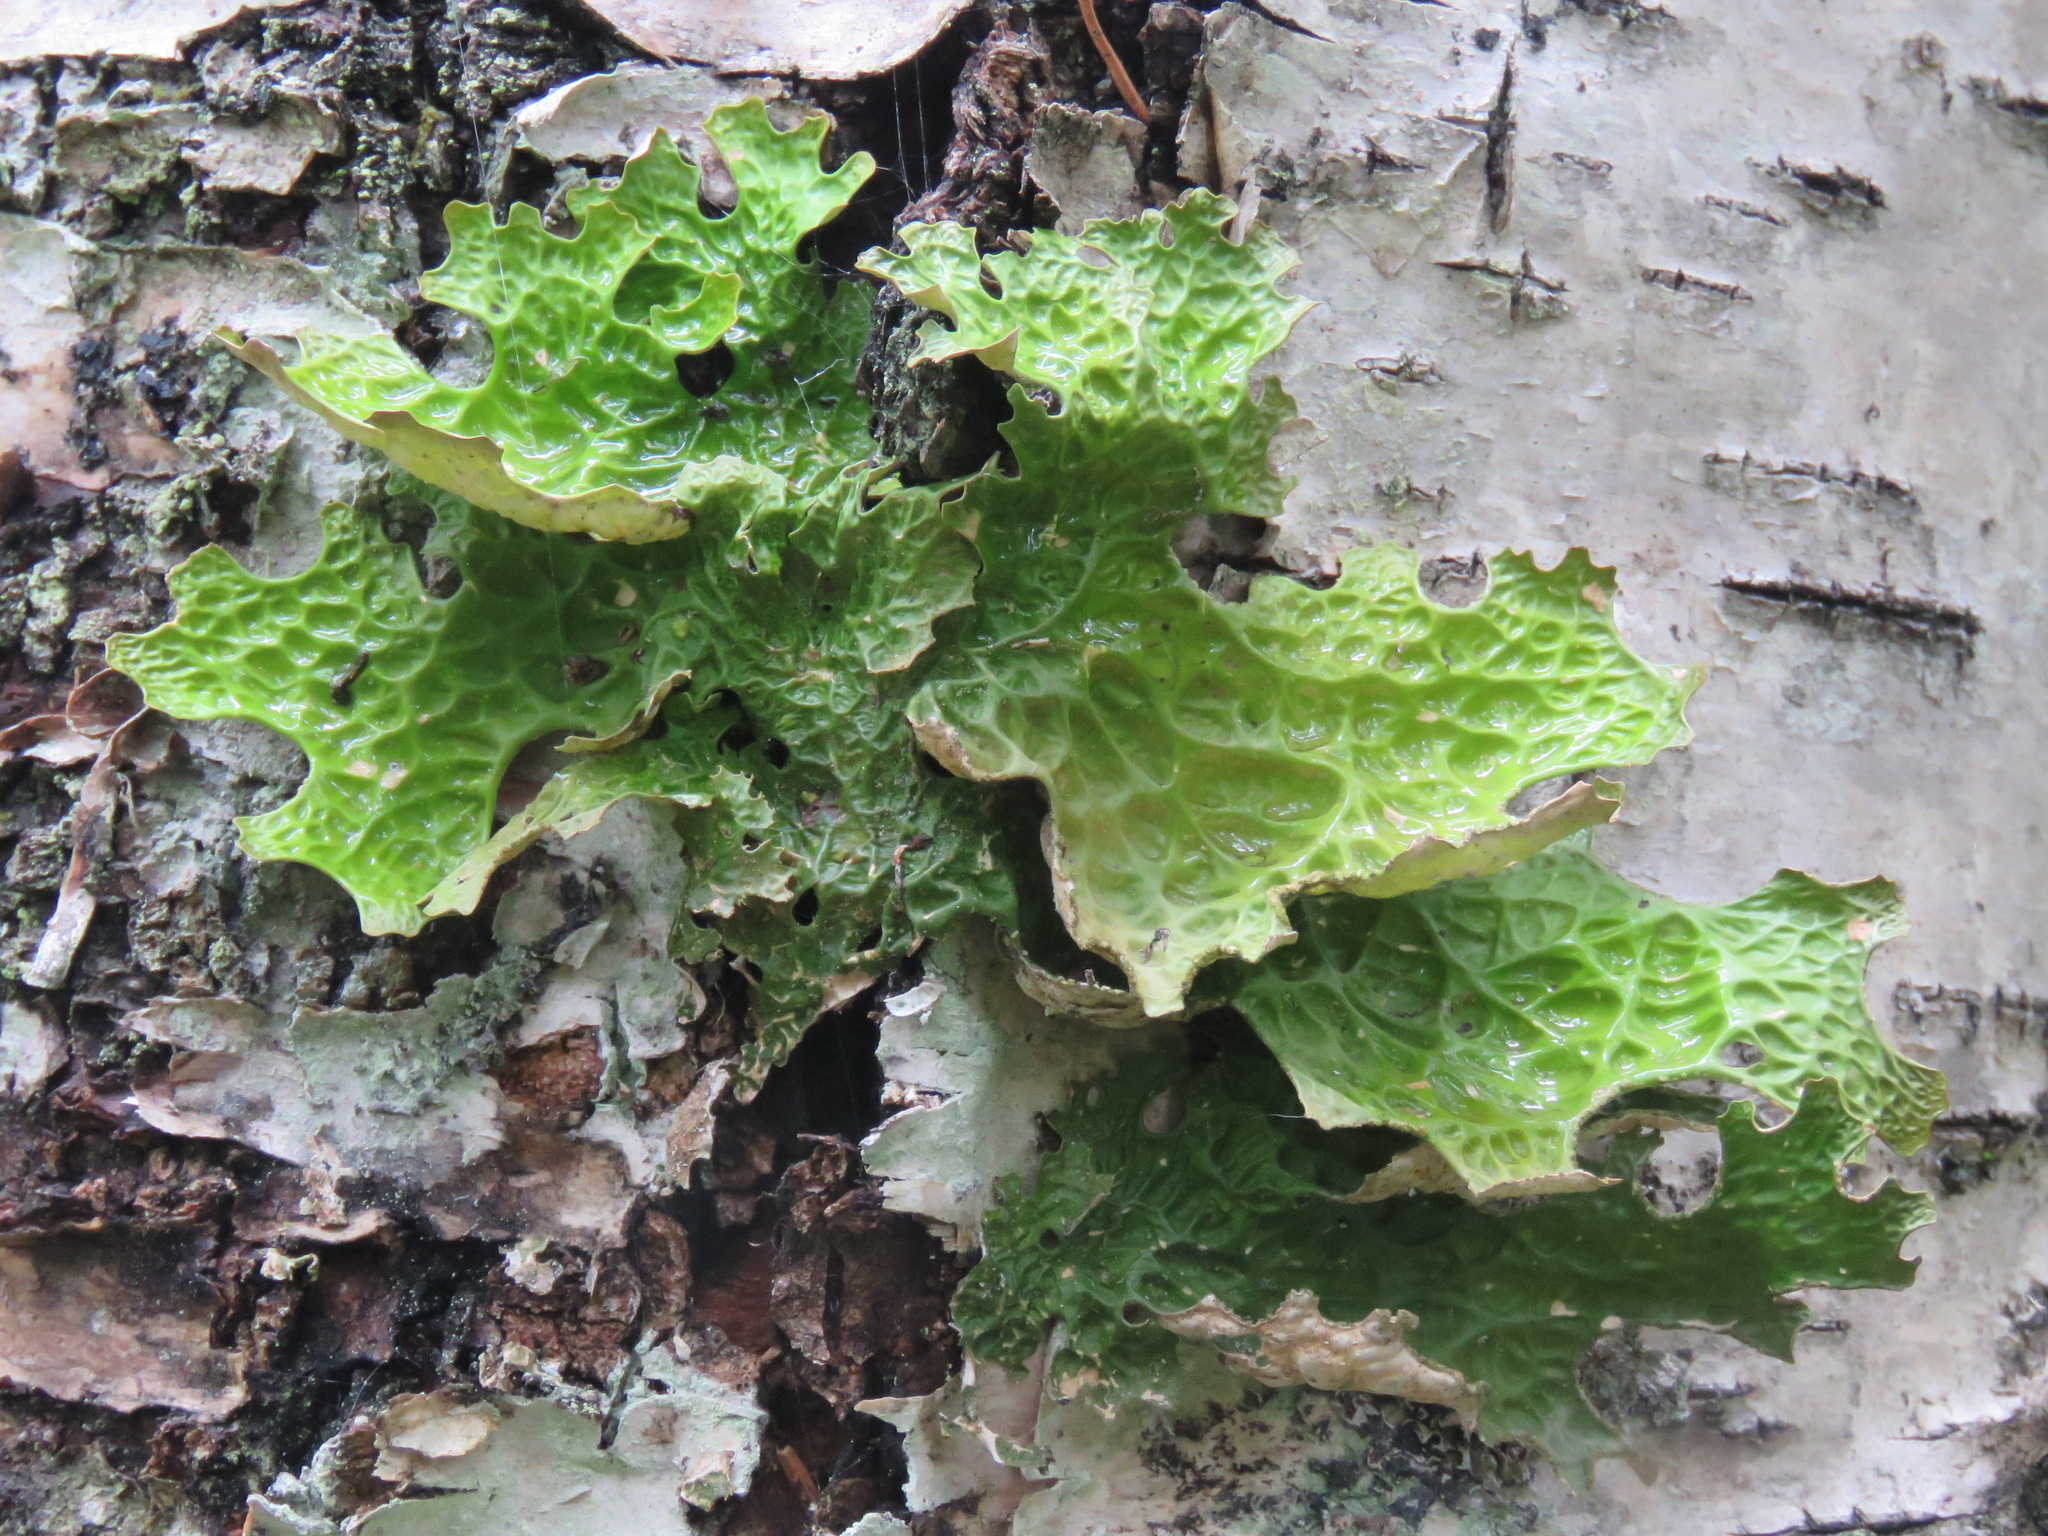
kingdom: Fungi
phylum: Ascomycota
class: Lecanoromycetes
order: Peltigerales
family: Lobariaceae
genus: Lobaria
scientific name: Lobaria pulmonaria
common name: Lungwort
